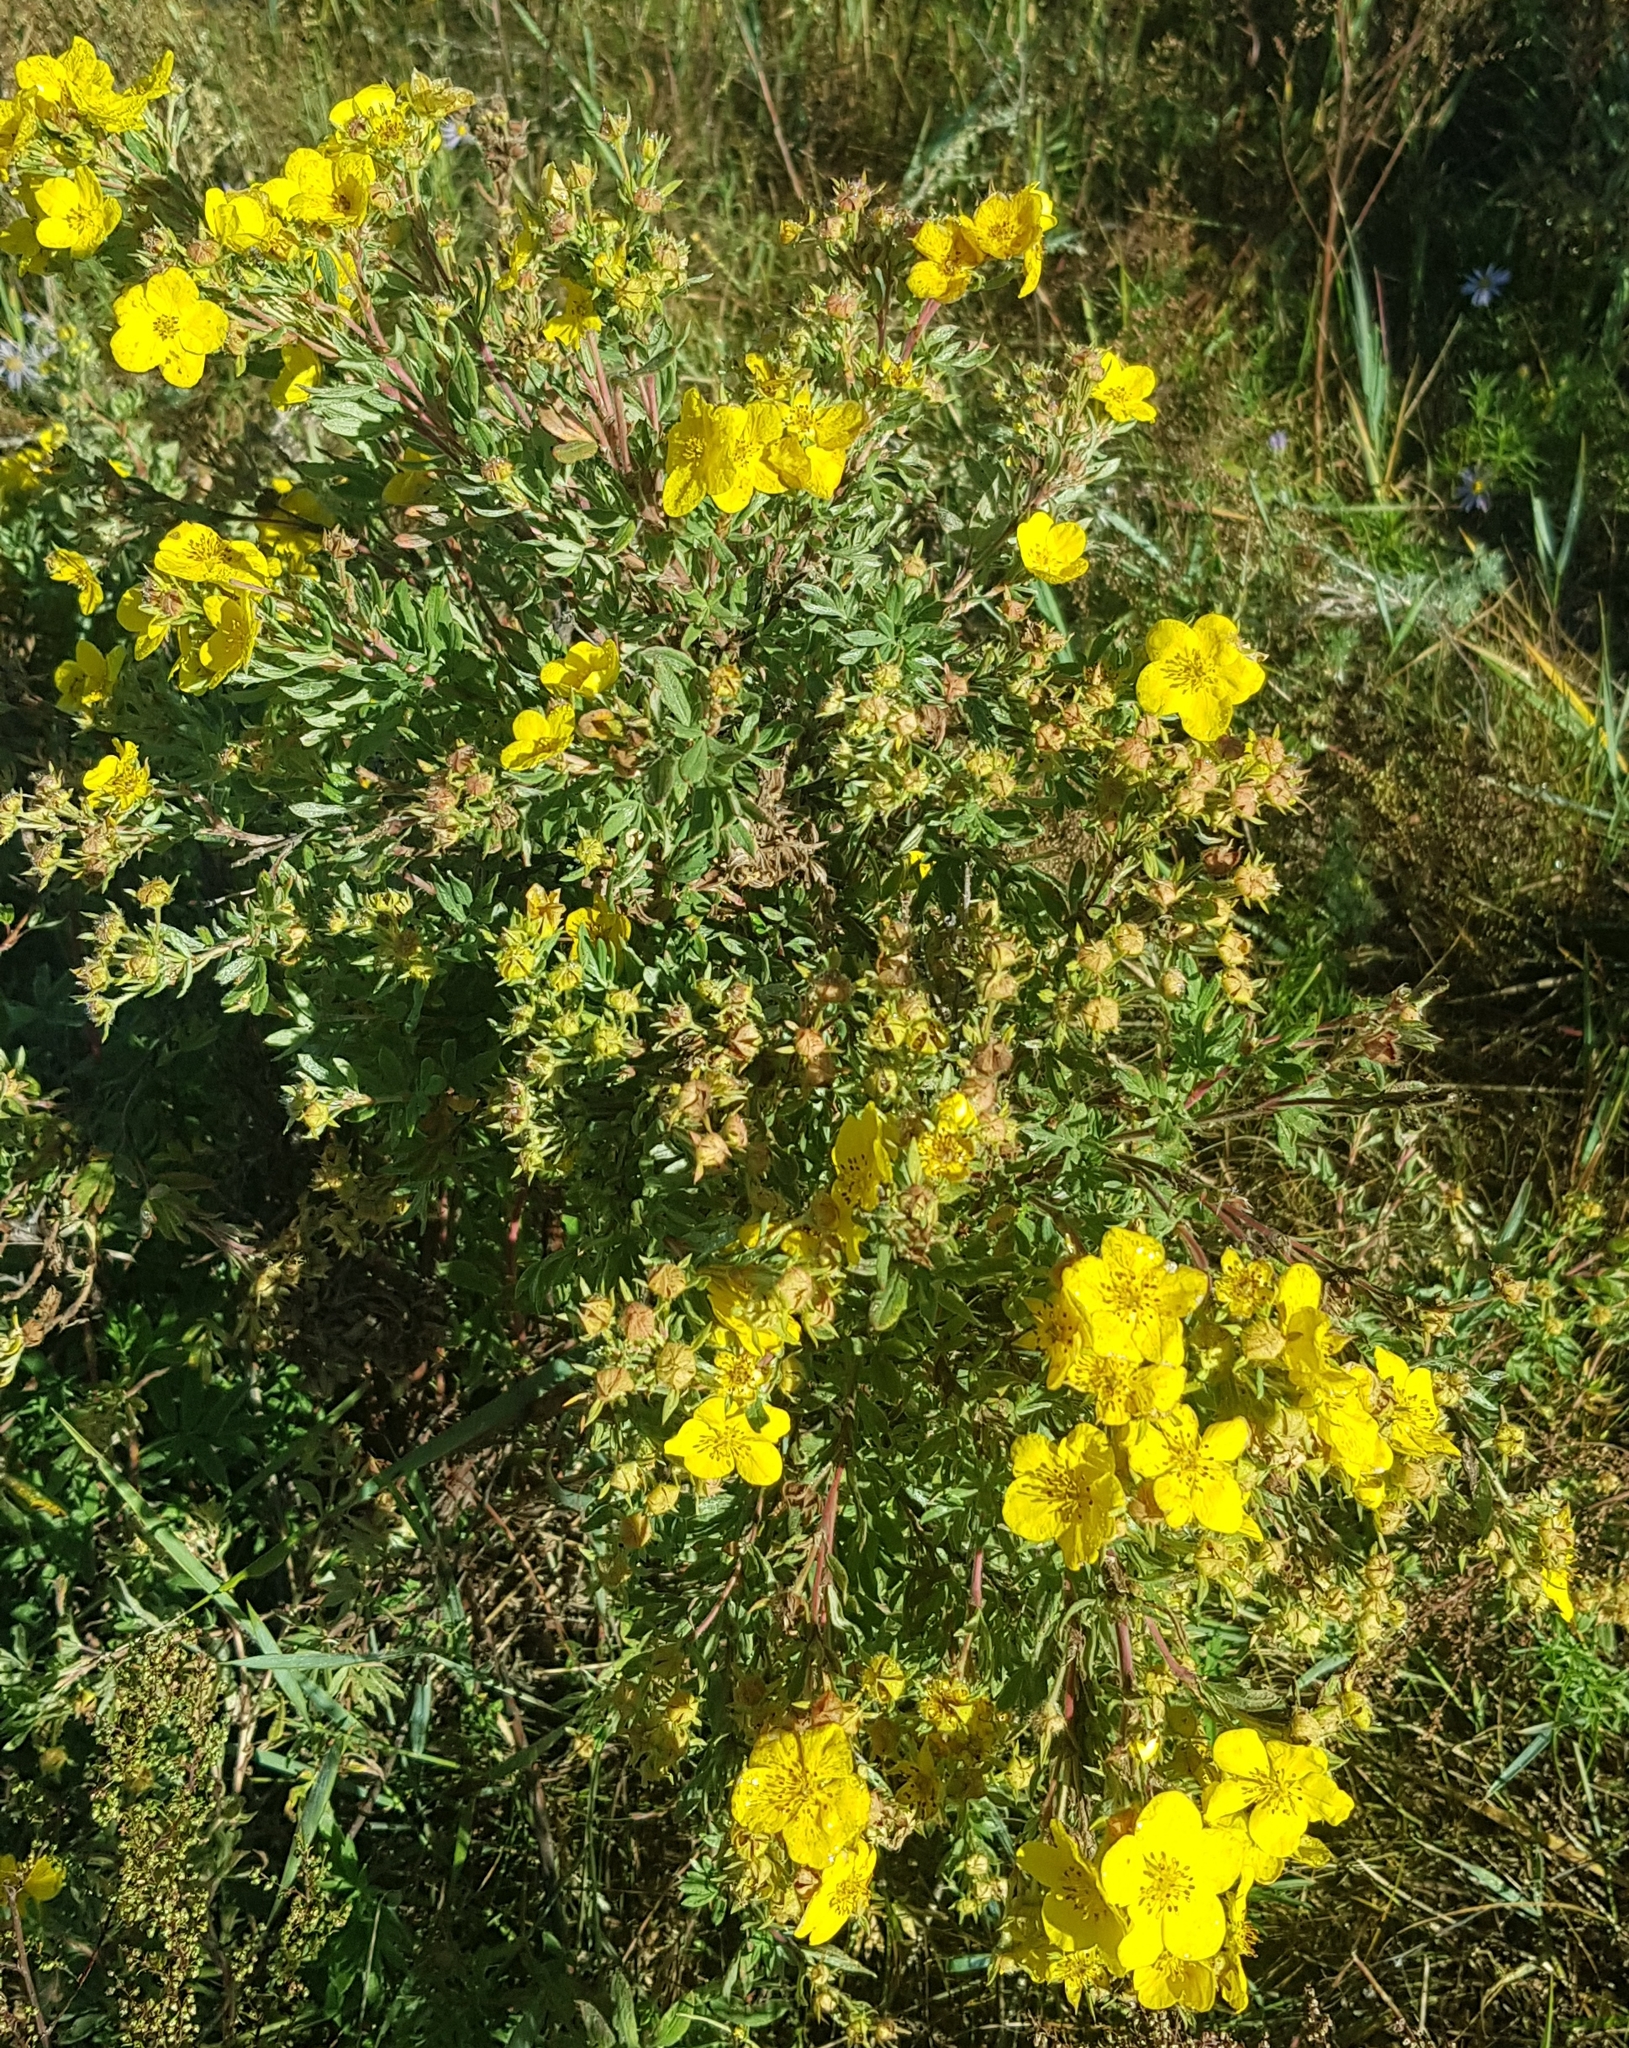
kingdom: Plantae
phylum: Tracheophyta
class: Magnoliopsida
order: Rosales
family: Rosaceae
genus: Dasiphora
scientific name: Dasiphora fruticosa
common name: Shrubby cinquefoil
